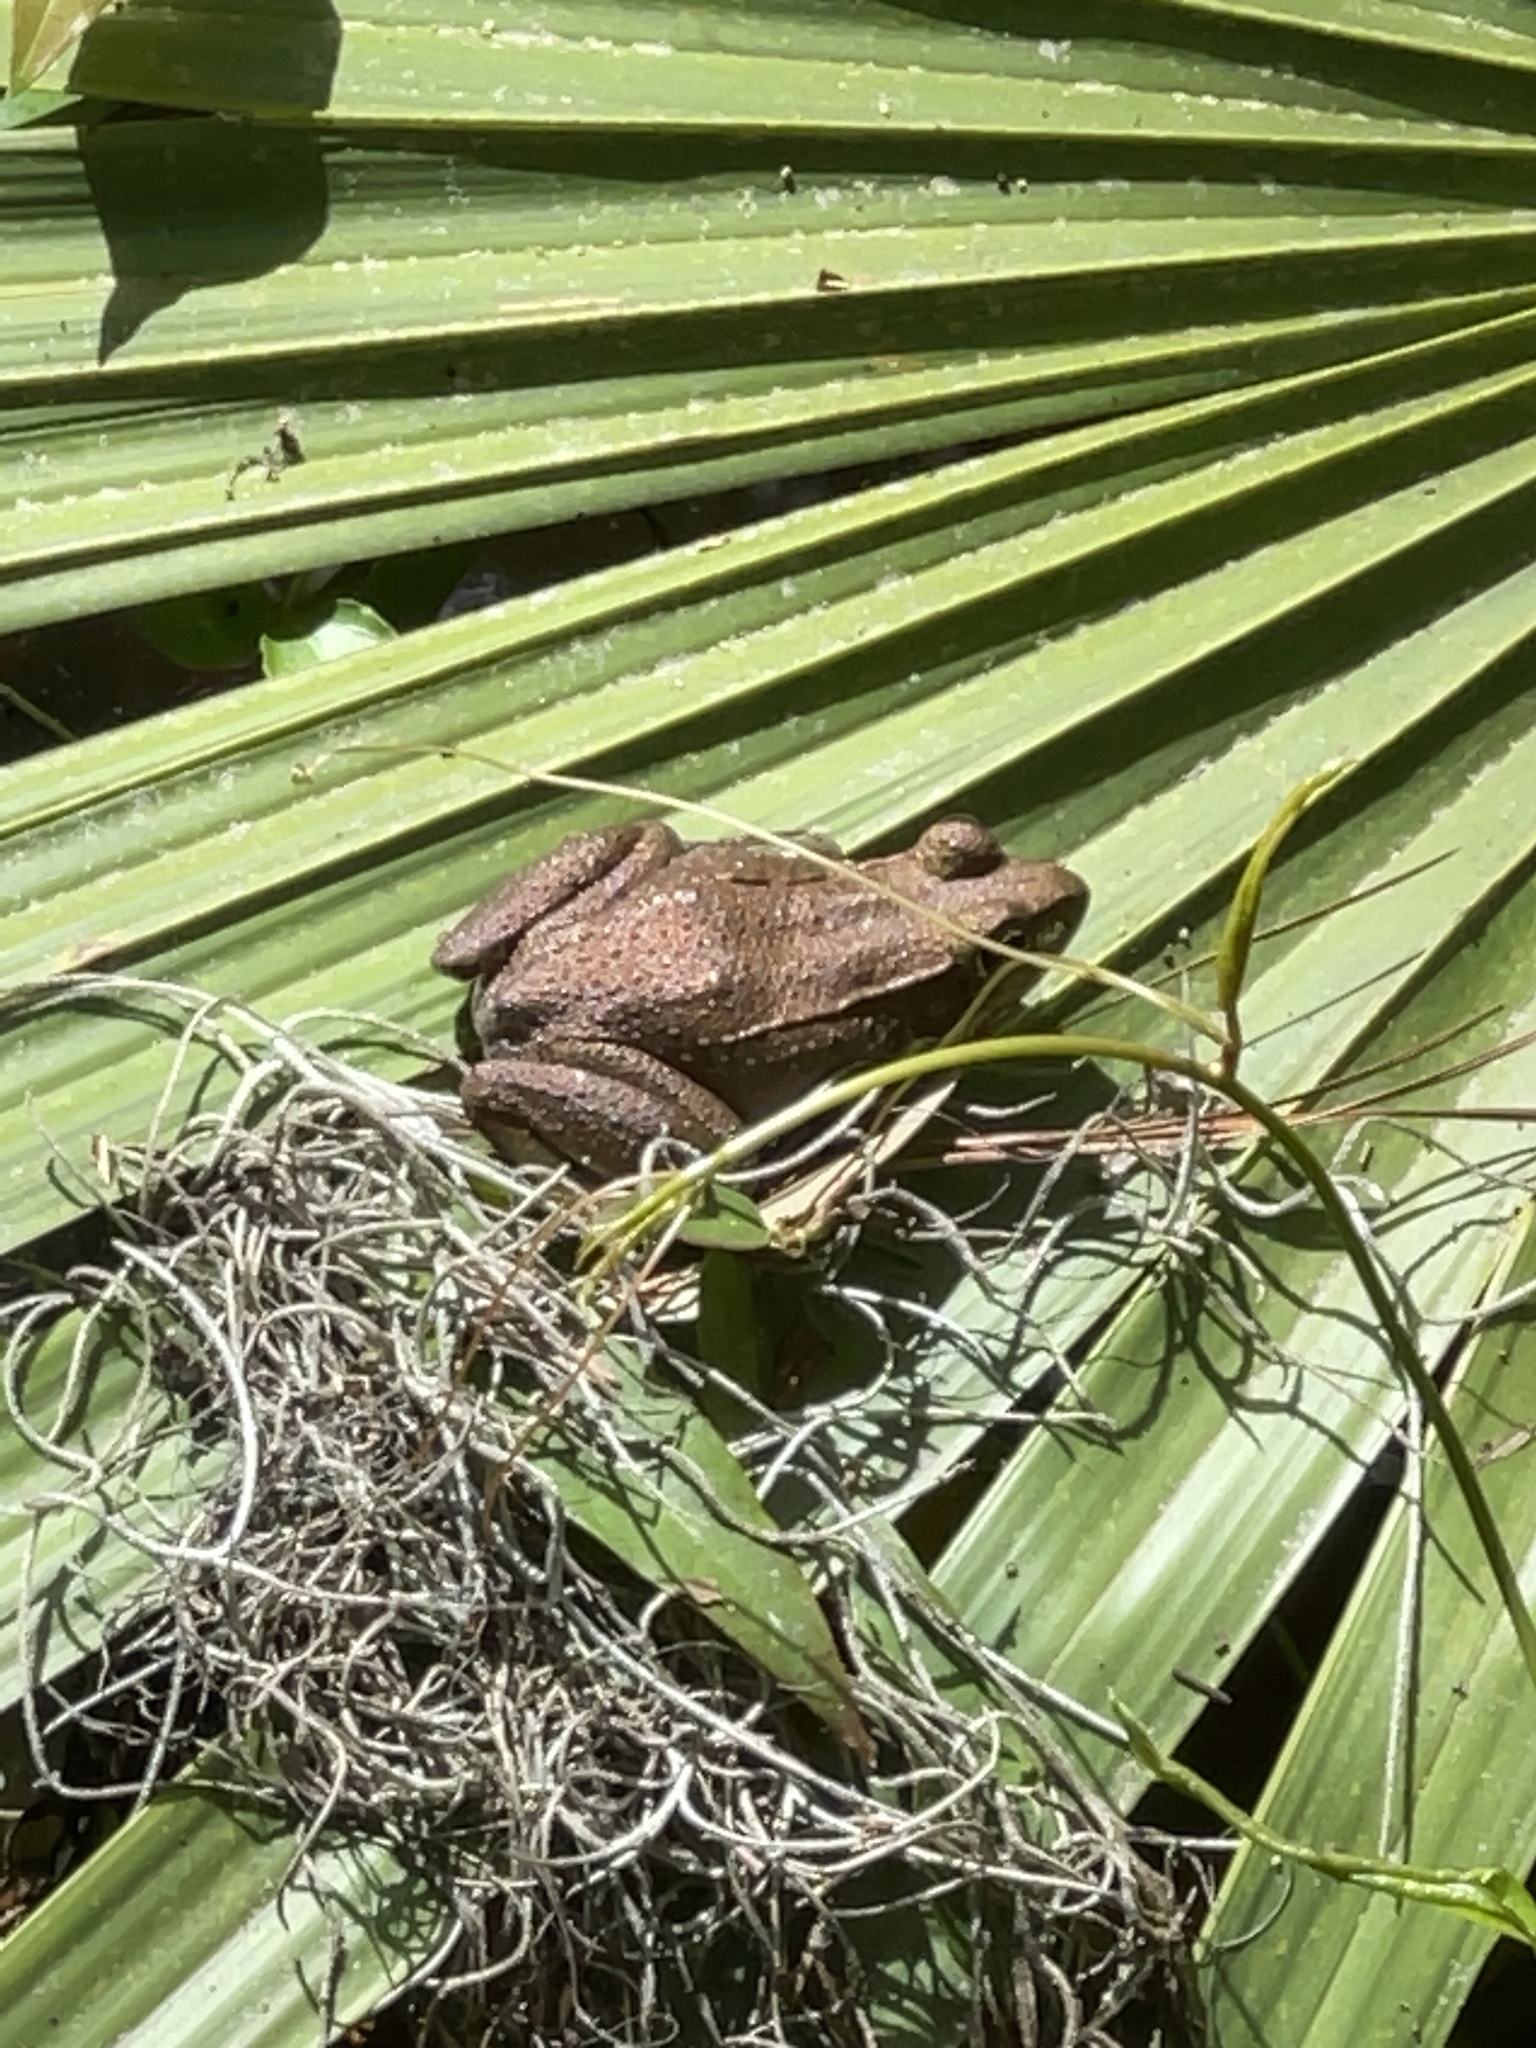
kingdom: Animalia
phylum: Chordata
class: Amphibia
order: Anura
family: Ranidae
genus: Lithobates
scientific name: Lithobates clamitans
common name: Green frog
